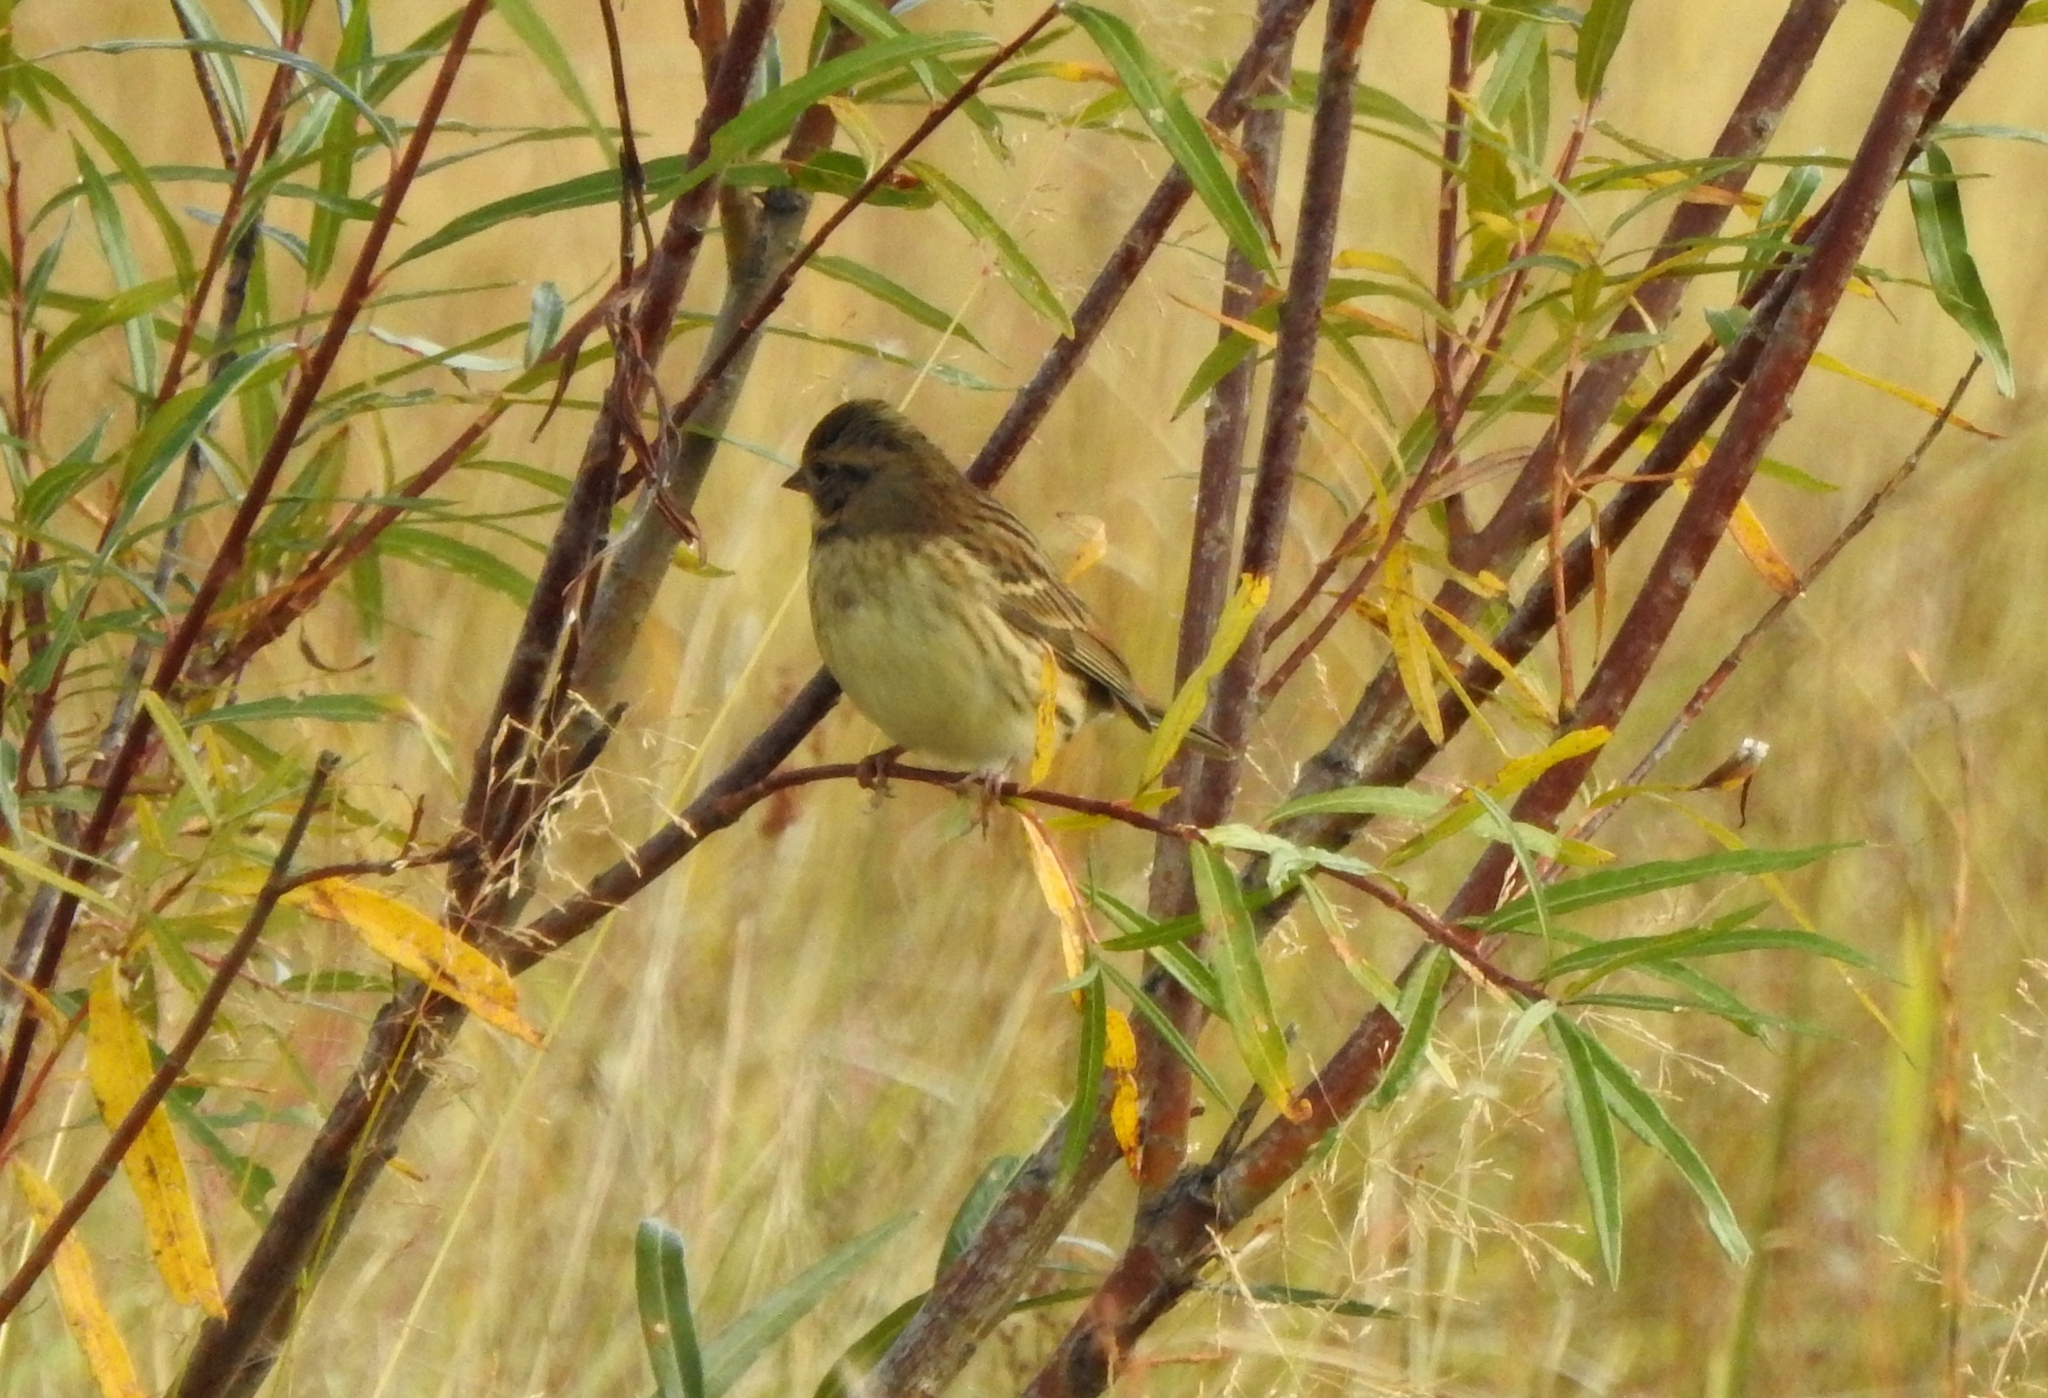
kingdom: Animalia
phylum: Chordata
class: Aves
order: Passeriformes
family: Emberizidae
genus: Emberiza
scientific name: Emberiza spodocephala
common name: Black-faced bunting
